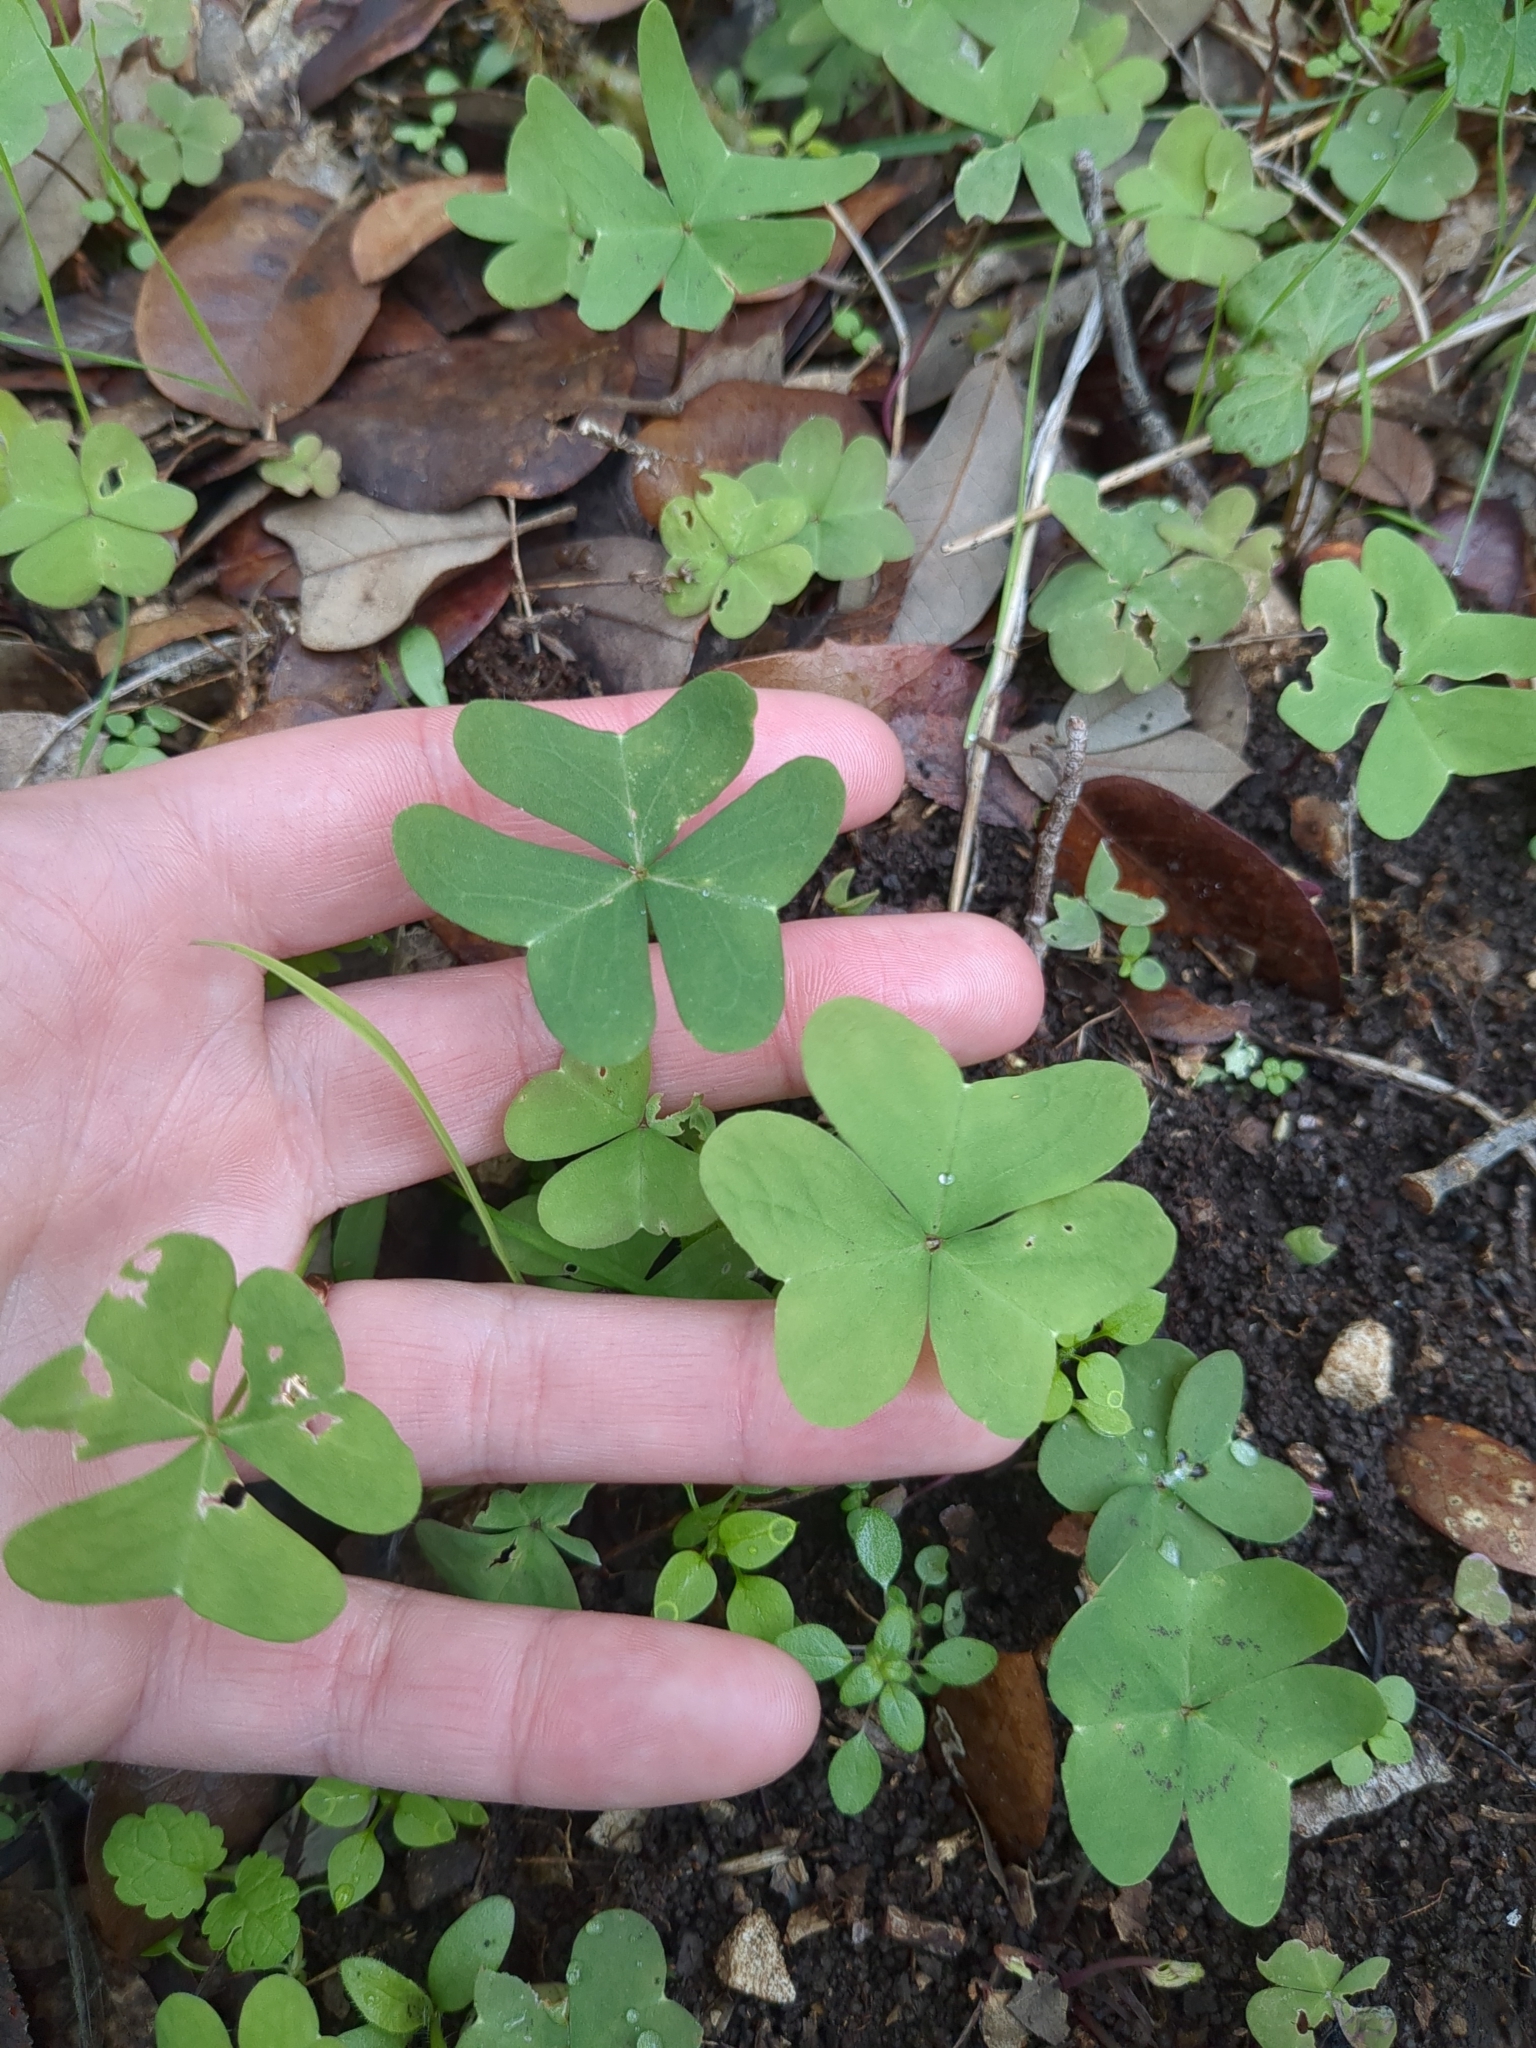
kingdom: Plantae
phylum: Tracheophyta
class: Magnoliopsida
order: Oxalidales
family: Oxalidaceae
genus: Oxalis
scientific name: Oxalis drummondii
